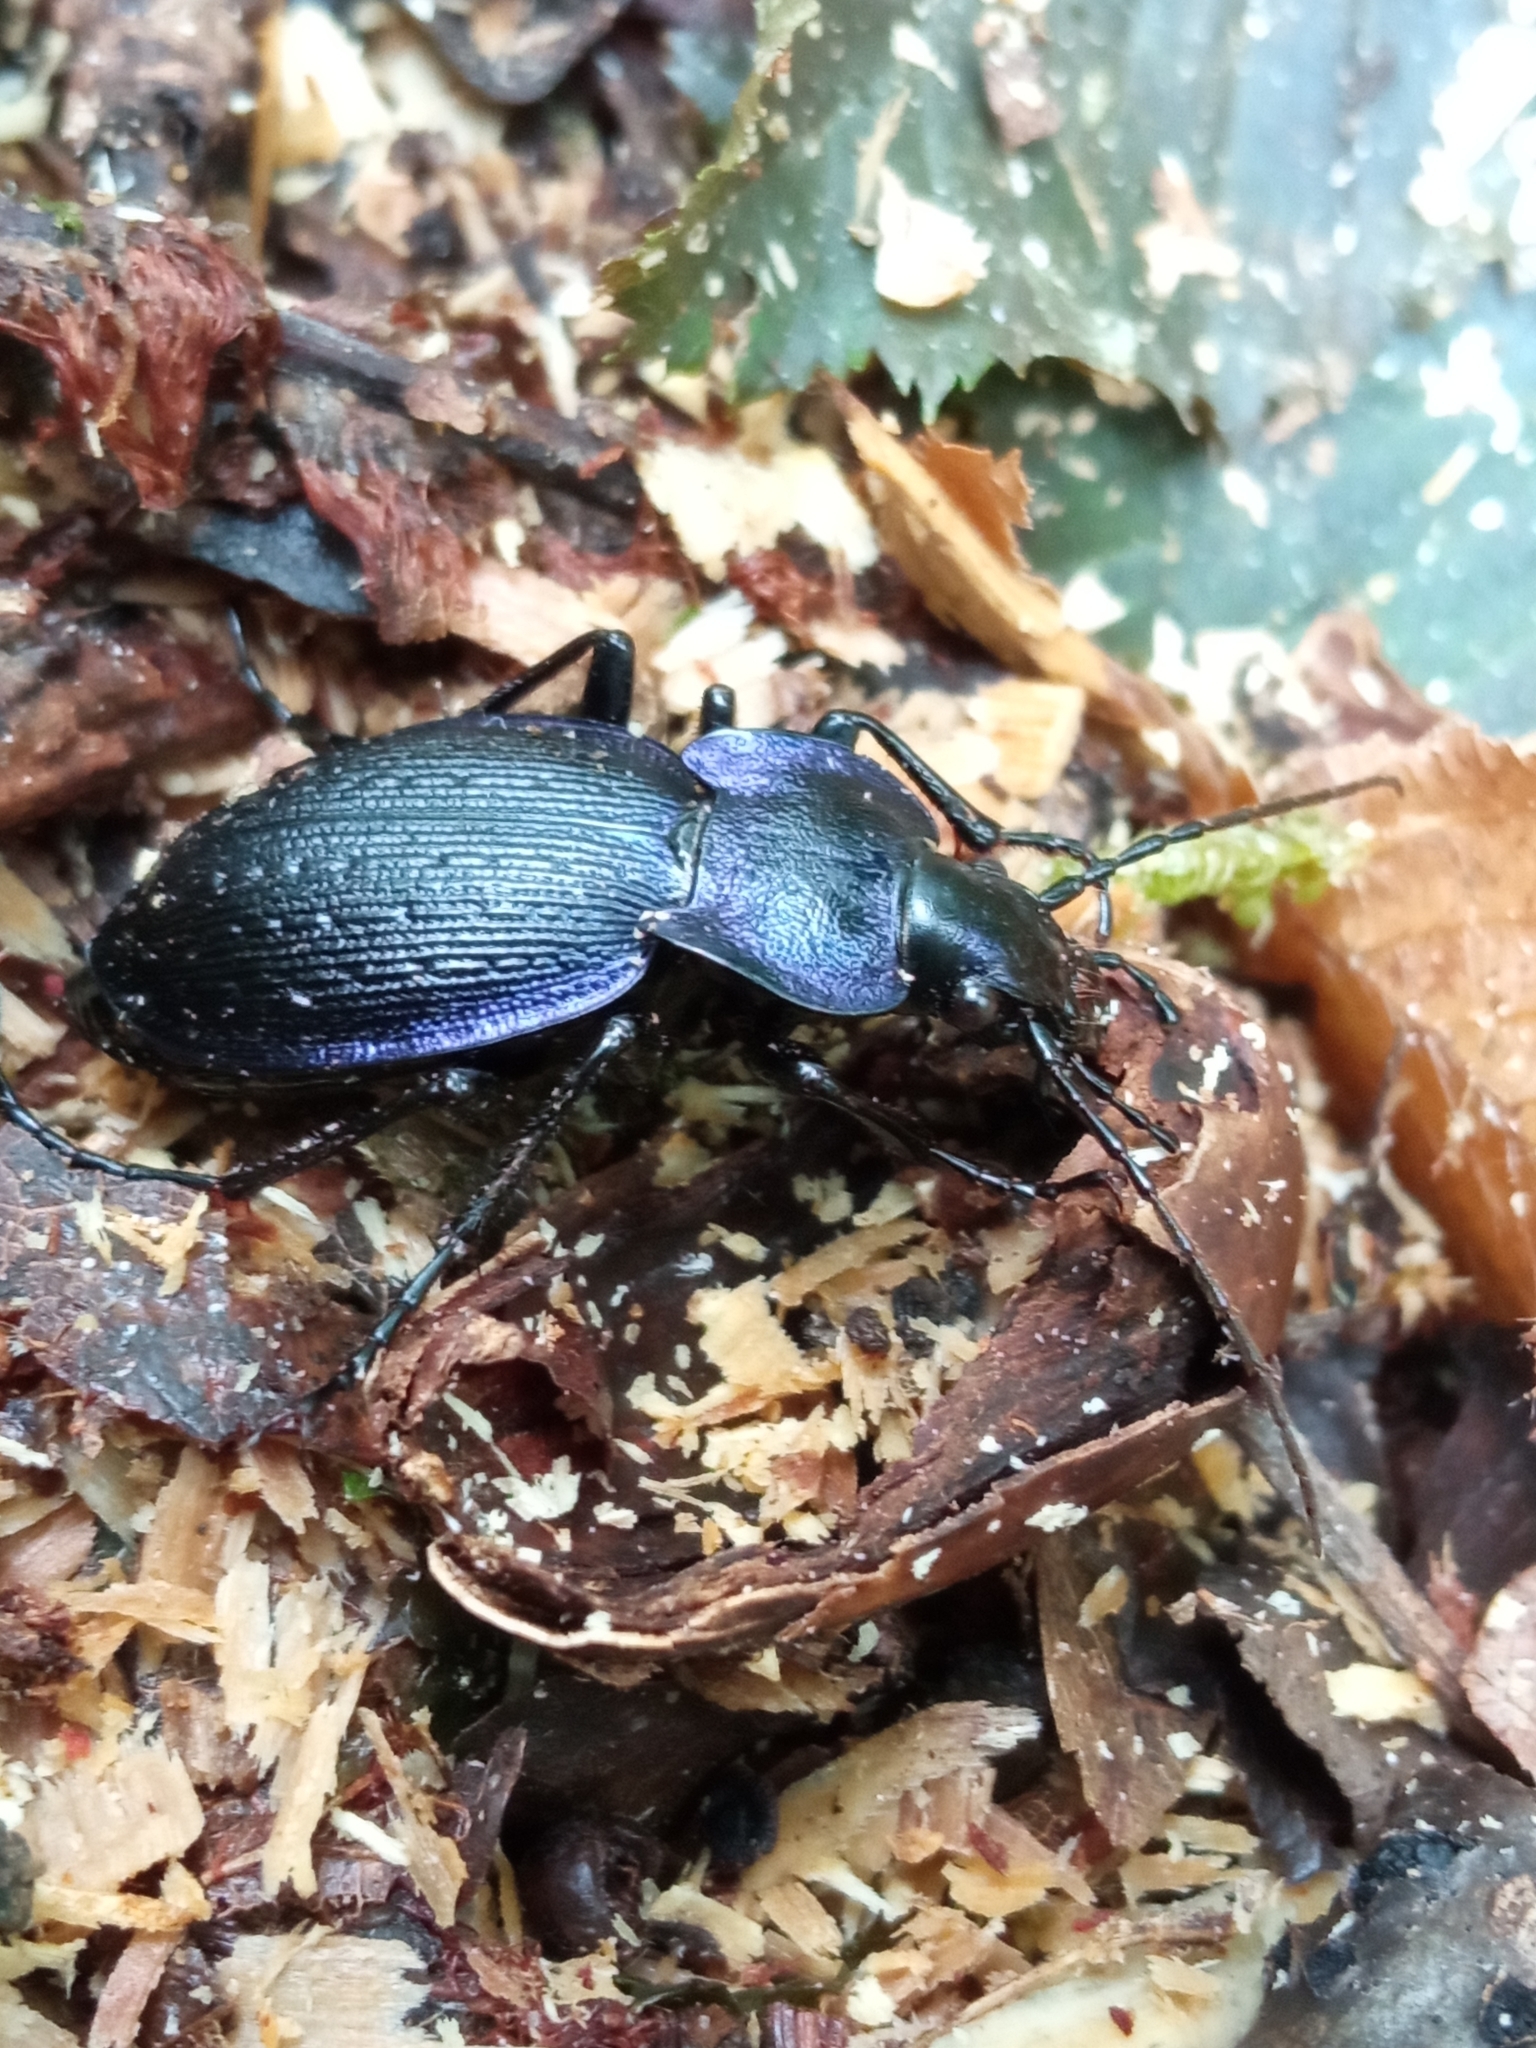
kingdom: Animalia
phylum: Arthropoda
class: Insecta
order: Coleoptera
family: Carabidae
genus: Carabus
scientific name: Carabus problematicus
